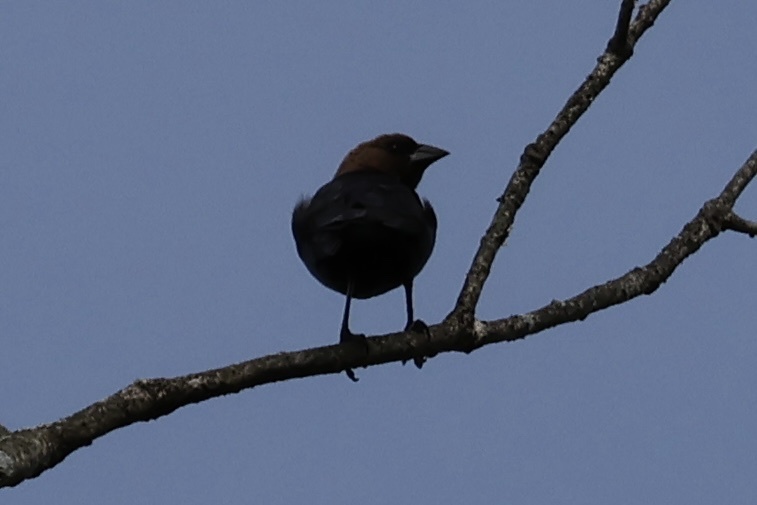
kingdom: Animalia
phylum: Chordata
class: Aves
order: Passeriformes
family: Icteridae
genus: Molothrus
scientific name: Molothrus ater
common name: Brown-headed cowbird
